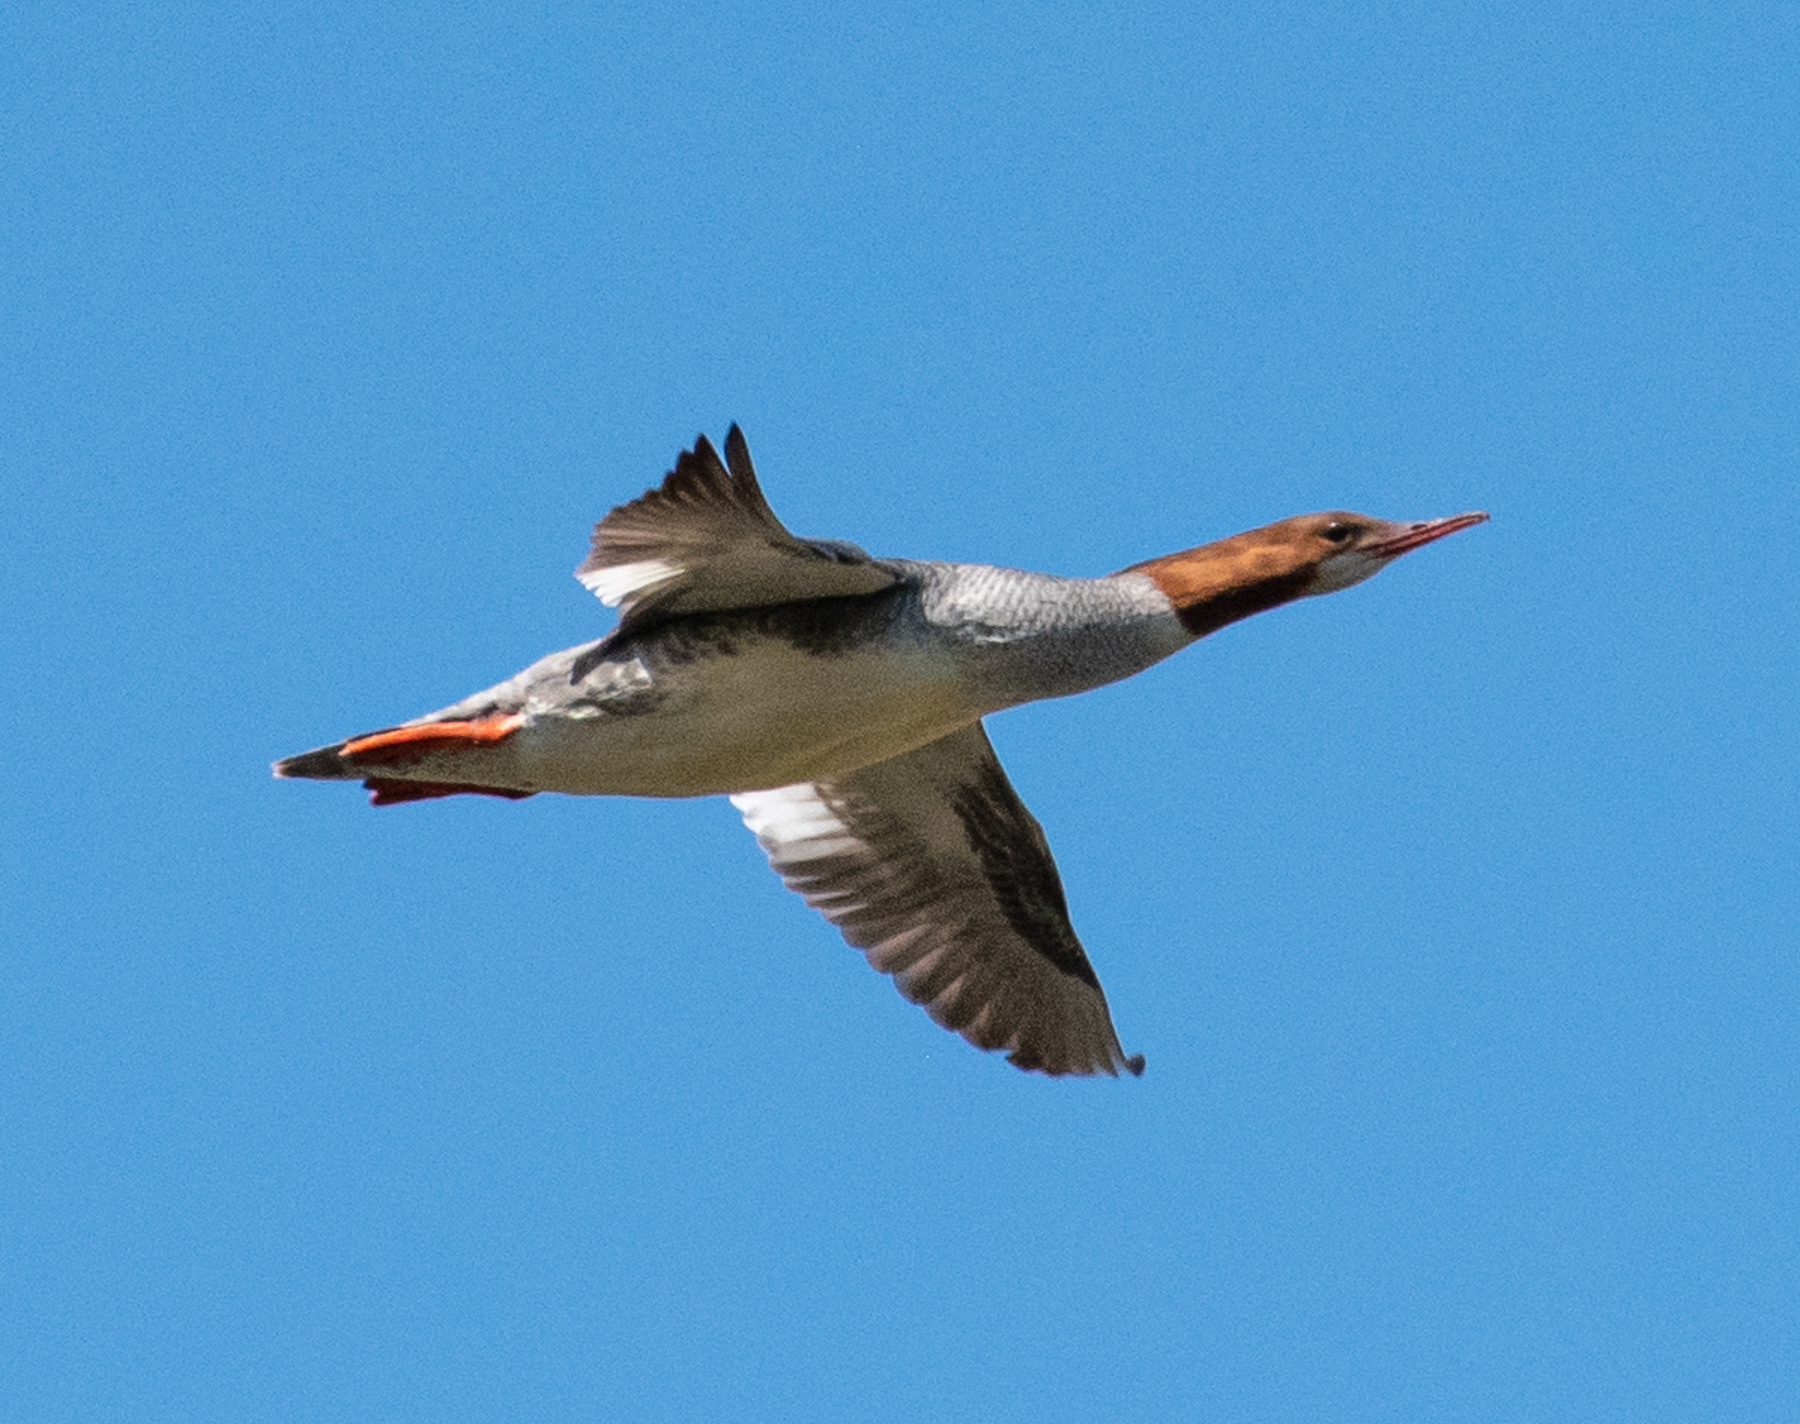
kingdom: Animalia
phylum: Chordata
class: Aves
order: Anseriformes
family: Anatidae
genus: Mergus
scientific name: Mergus merganser
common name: Common merganser
